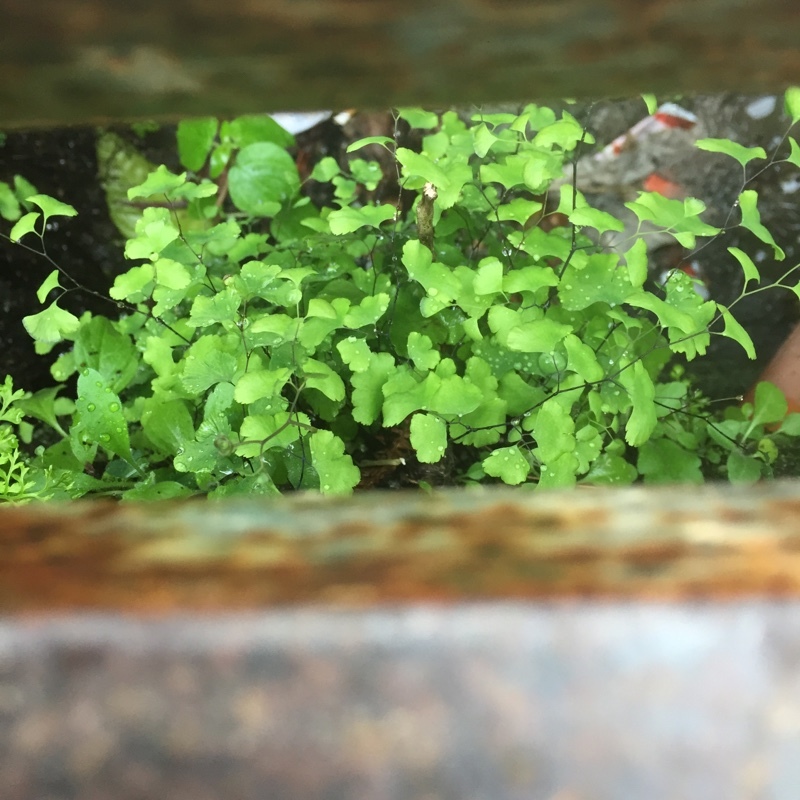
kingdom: Plantae
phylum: Tracheophyta
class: Polypodiopsida
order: Polypodiales
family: Pteridaceae
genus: Adiantum
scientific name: Adiantum capillus-veneris
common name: Maidenhair fern
